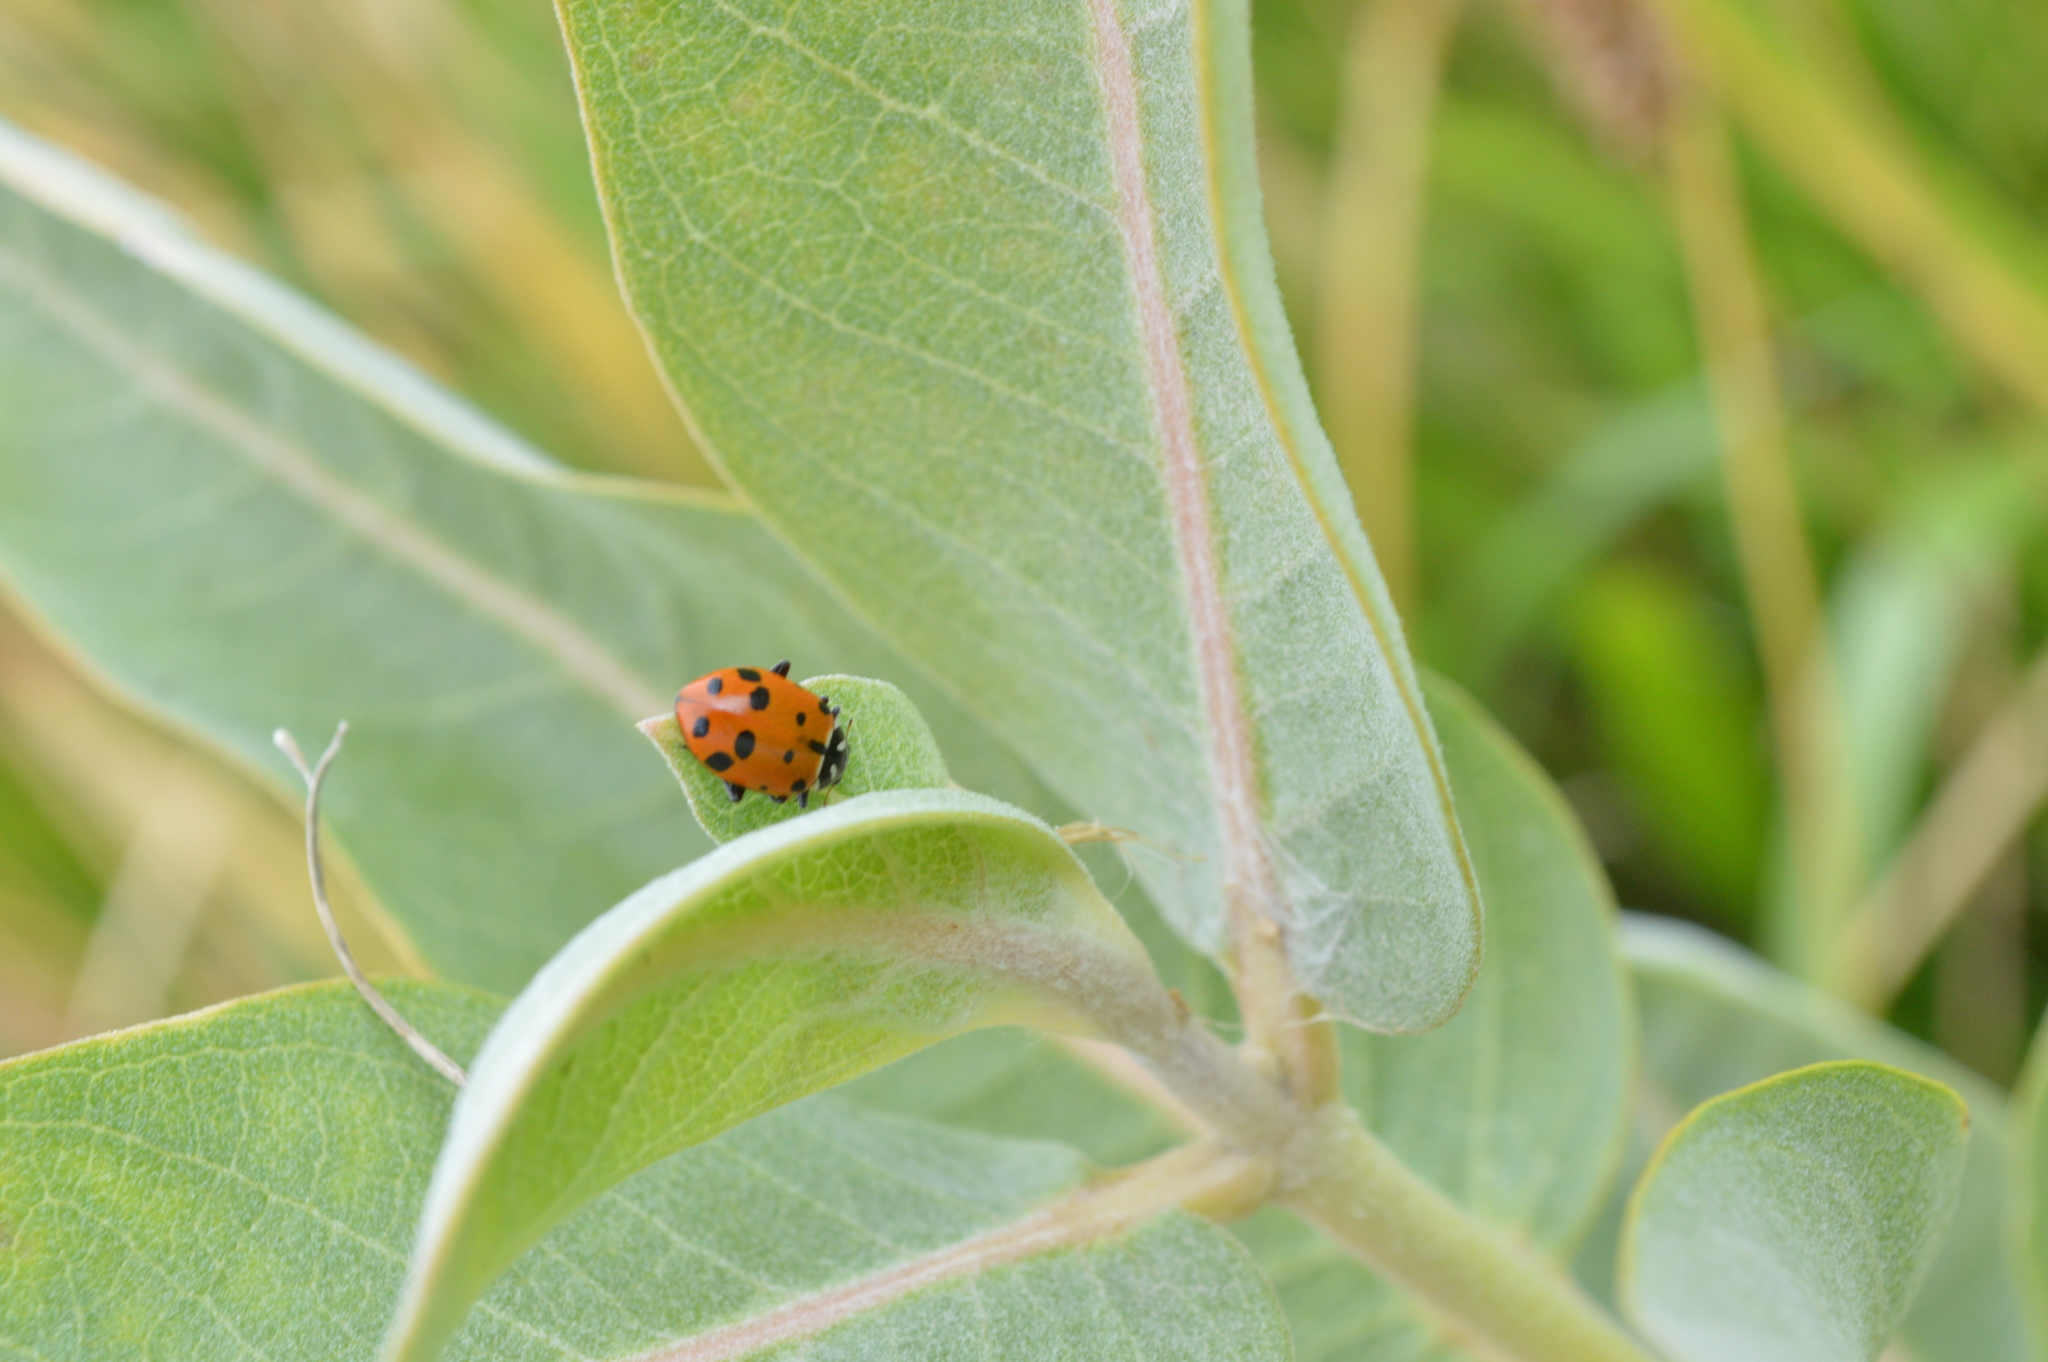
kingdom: Animalia
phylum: Arthropoda
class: Insecta
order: Coleoptera
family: Coccinellidae
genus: Hippodamia
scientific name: Hippodamia convergens
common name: Convergent lady beetle
